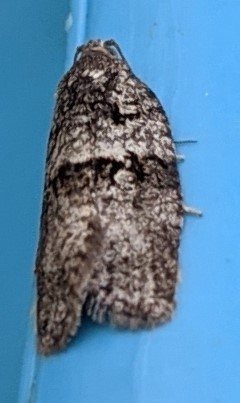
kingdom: Animalia
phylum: Arthropoda
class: Insecta
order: Lepidoptera
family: Tortricidae
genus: Syndemis
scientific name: Syndemis afflictana
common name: Gray leafroller moth
